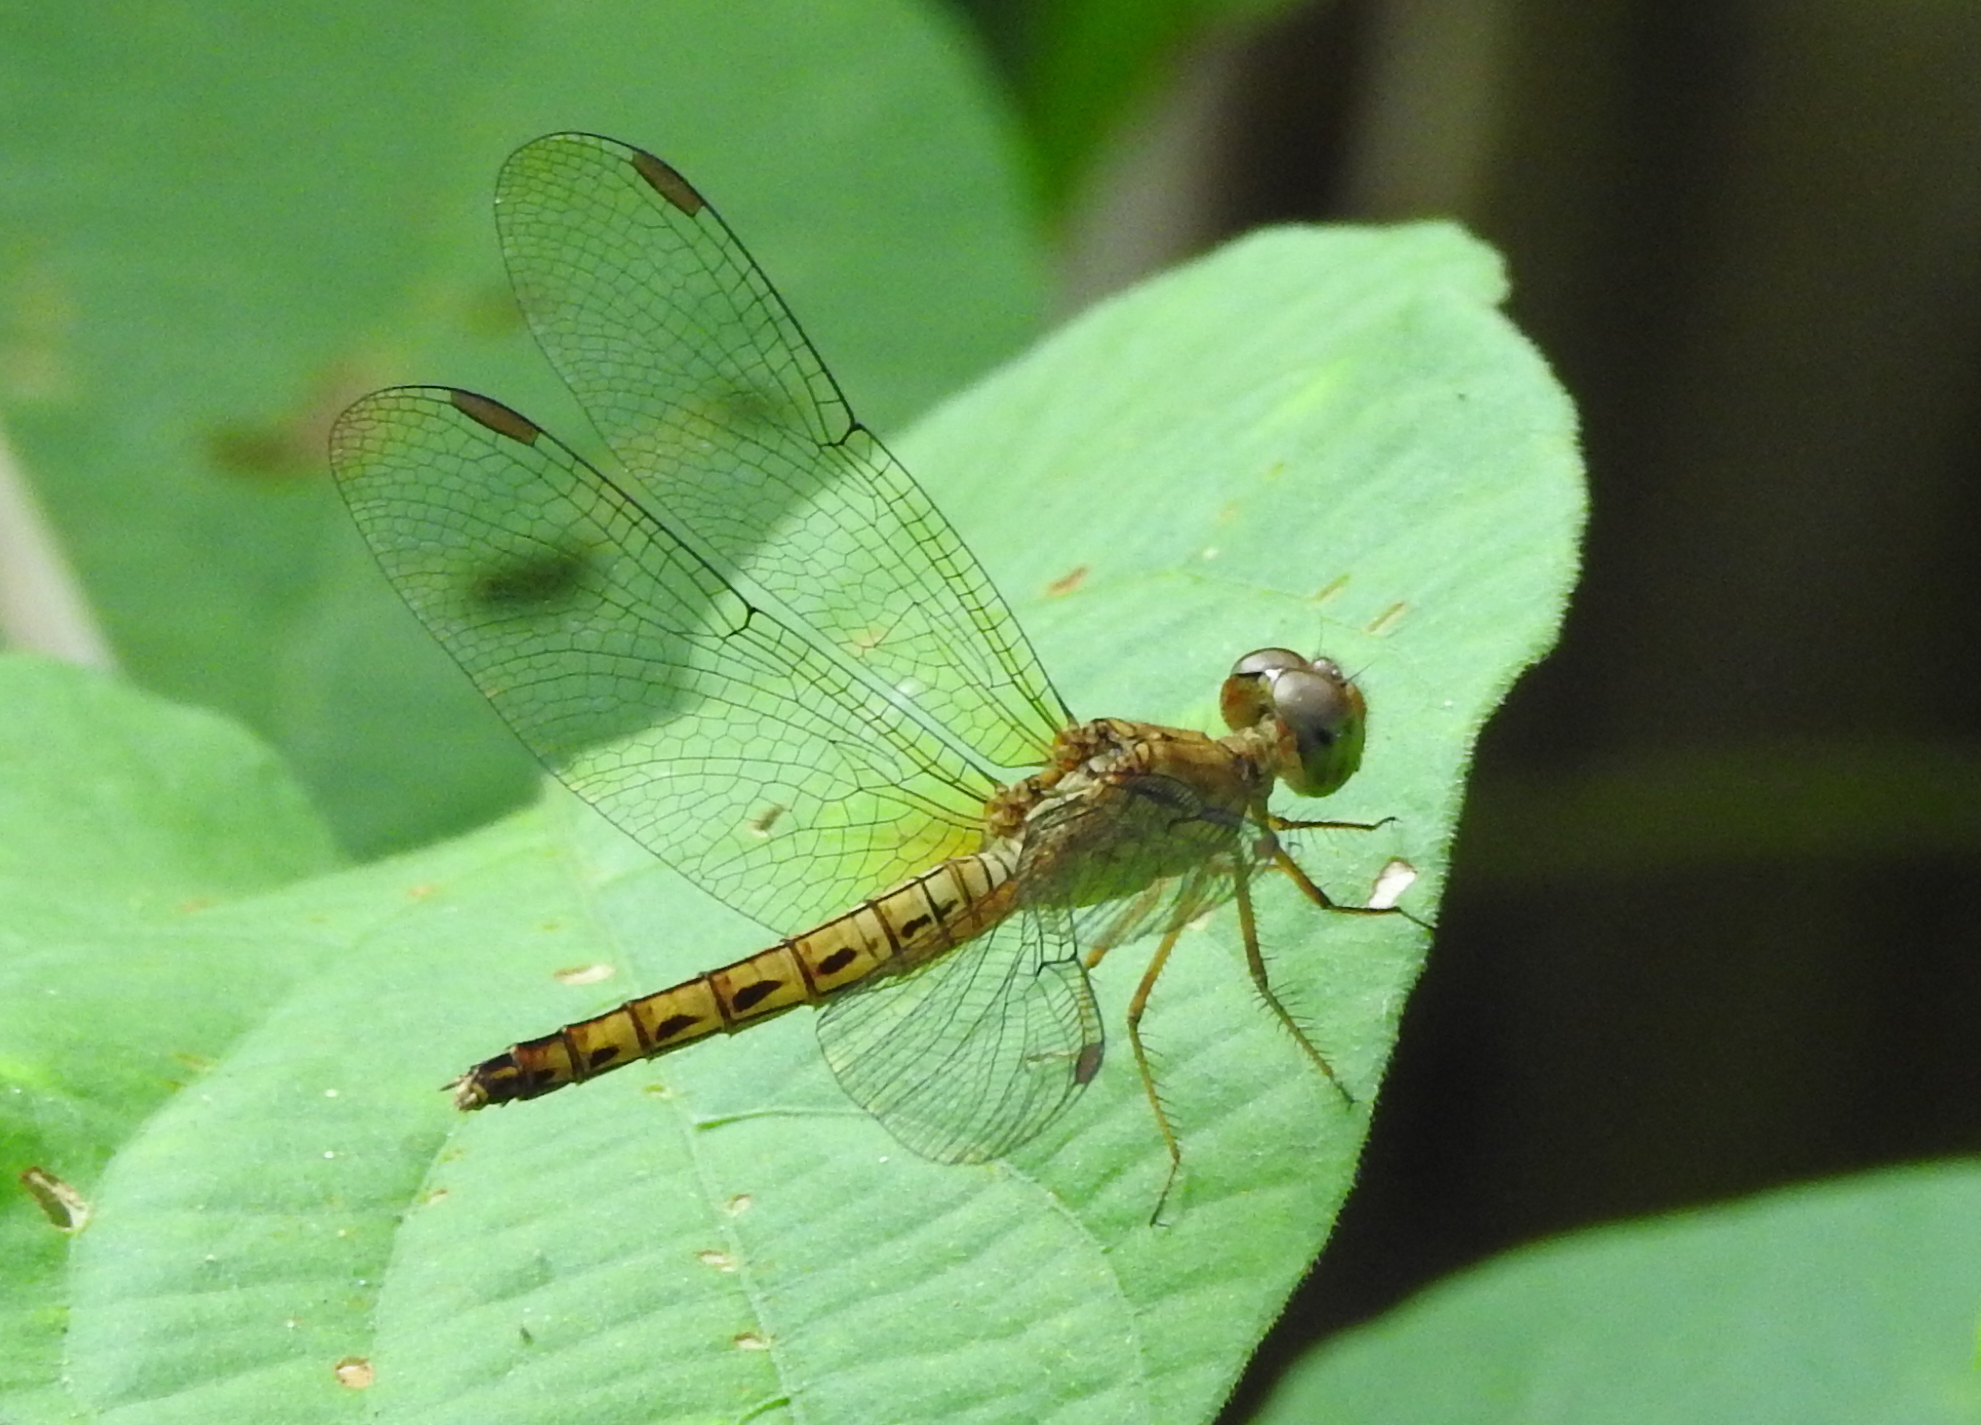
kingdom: Animalia
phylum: Arthropoda
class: Insecta
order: Odonata
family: Libellulidae
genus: Neurothemis
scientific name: Neurothemis fluctuans
